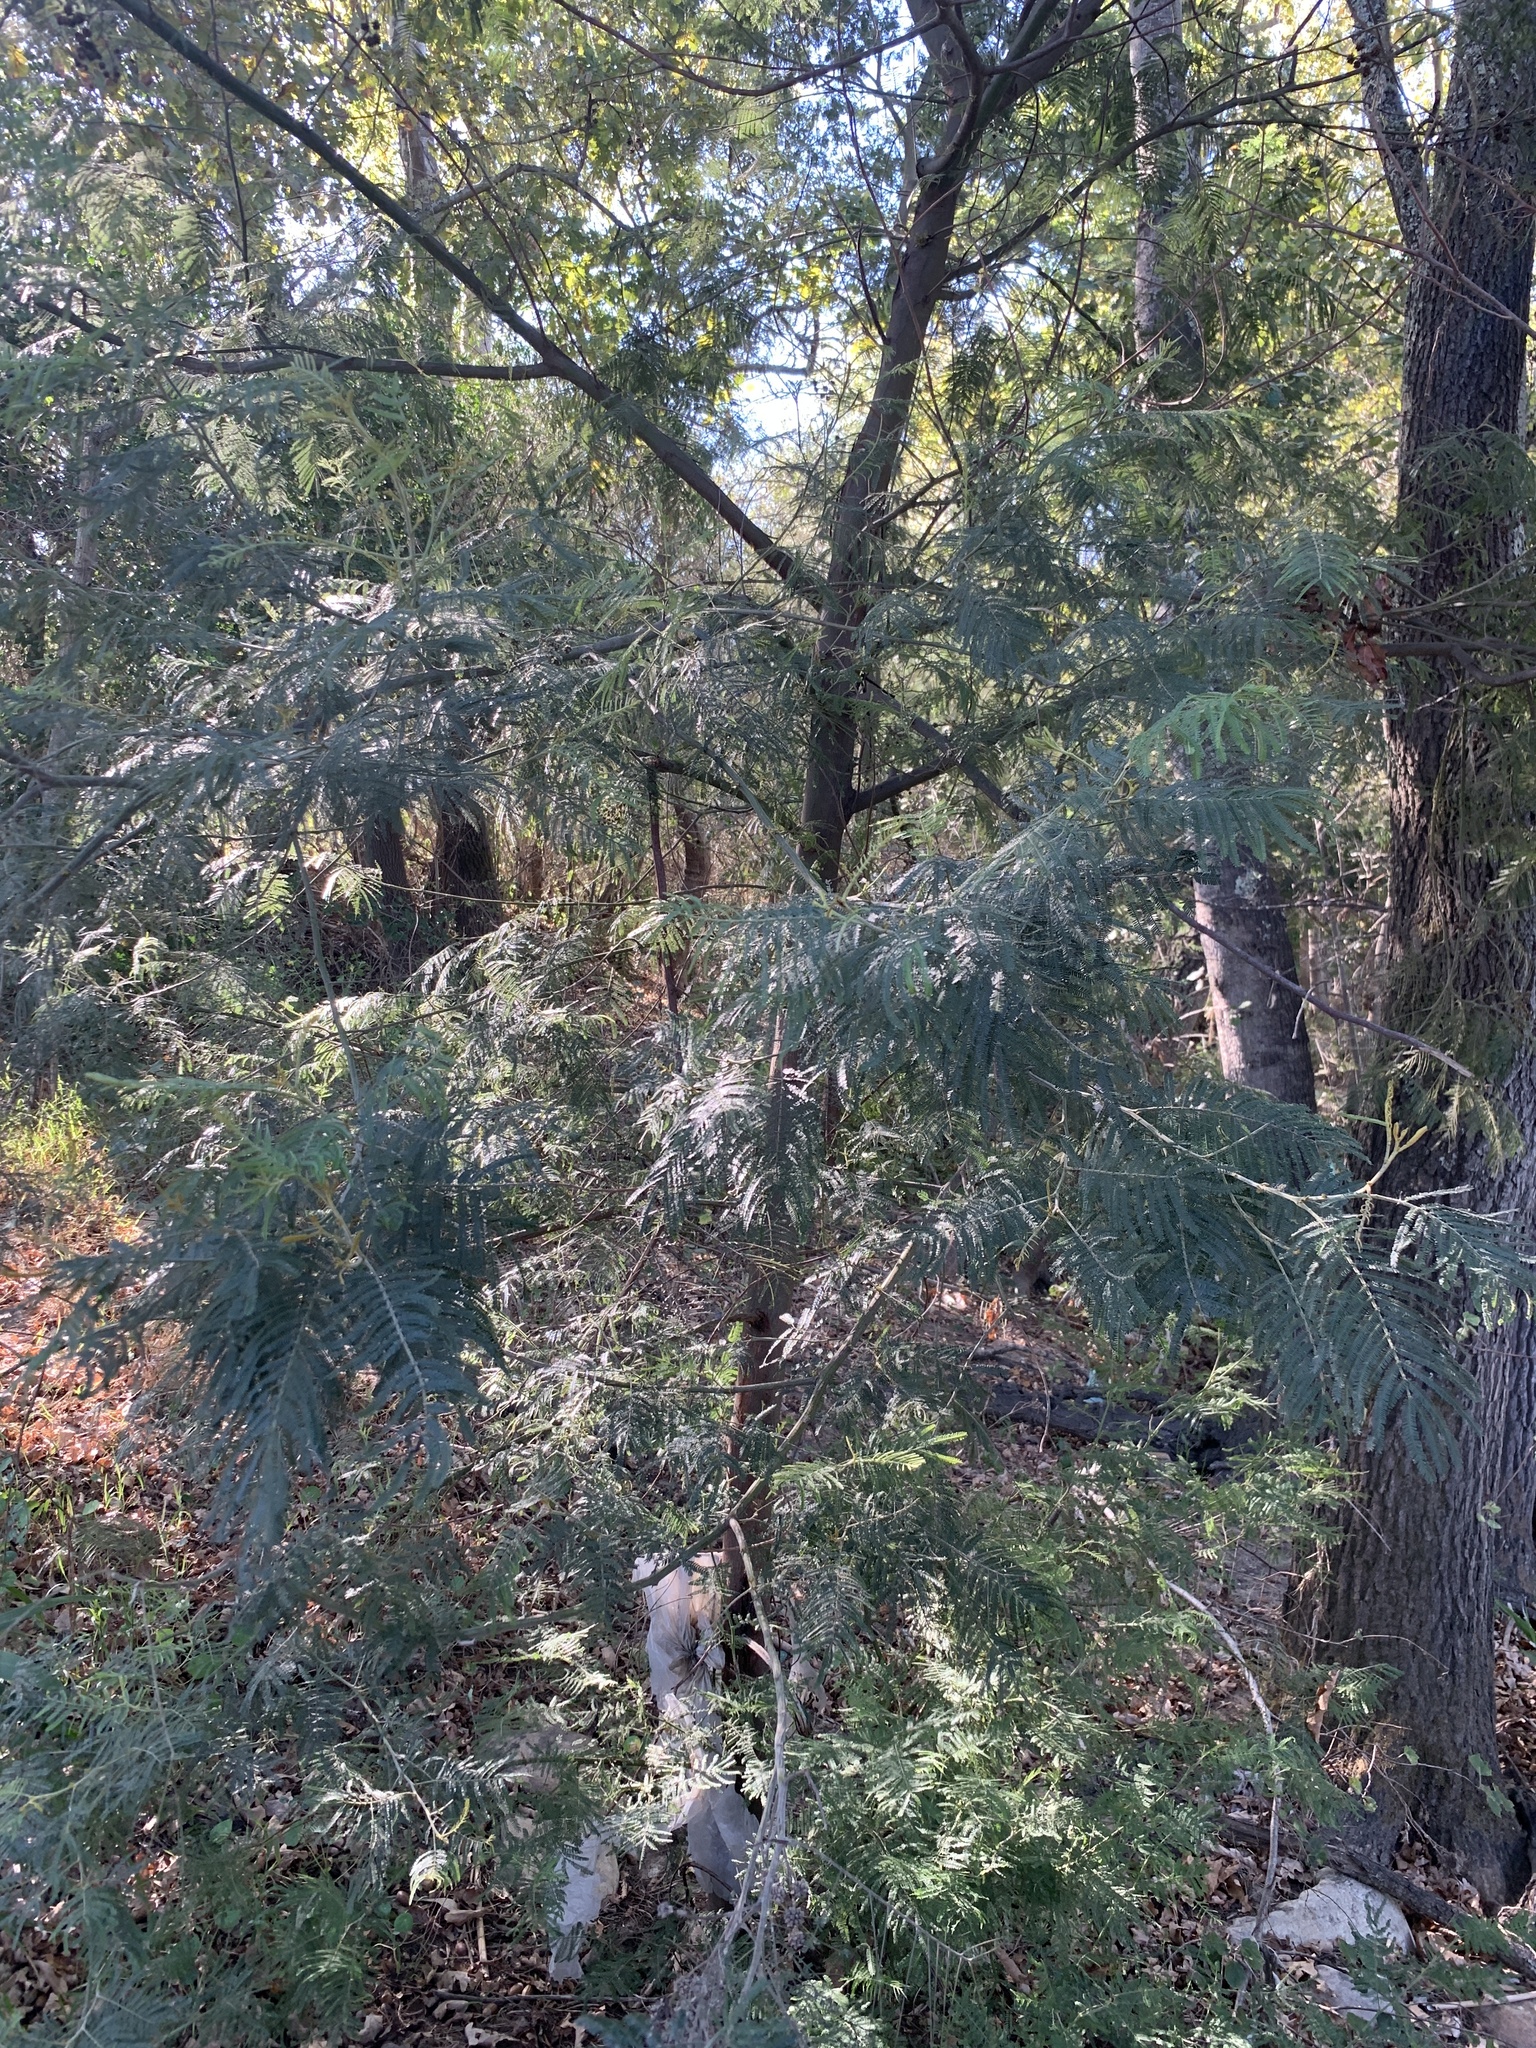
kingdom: Plantae
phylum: Tracheophyta
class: Magnoliopsida
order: Fabales
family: Fabaceae
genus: Acacia
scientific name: Acacia mearnsii
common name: Black wattle
